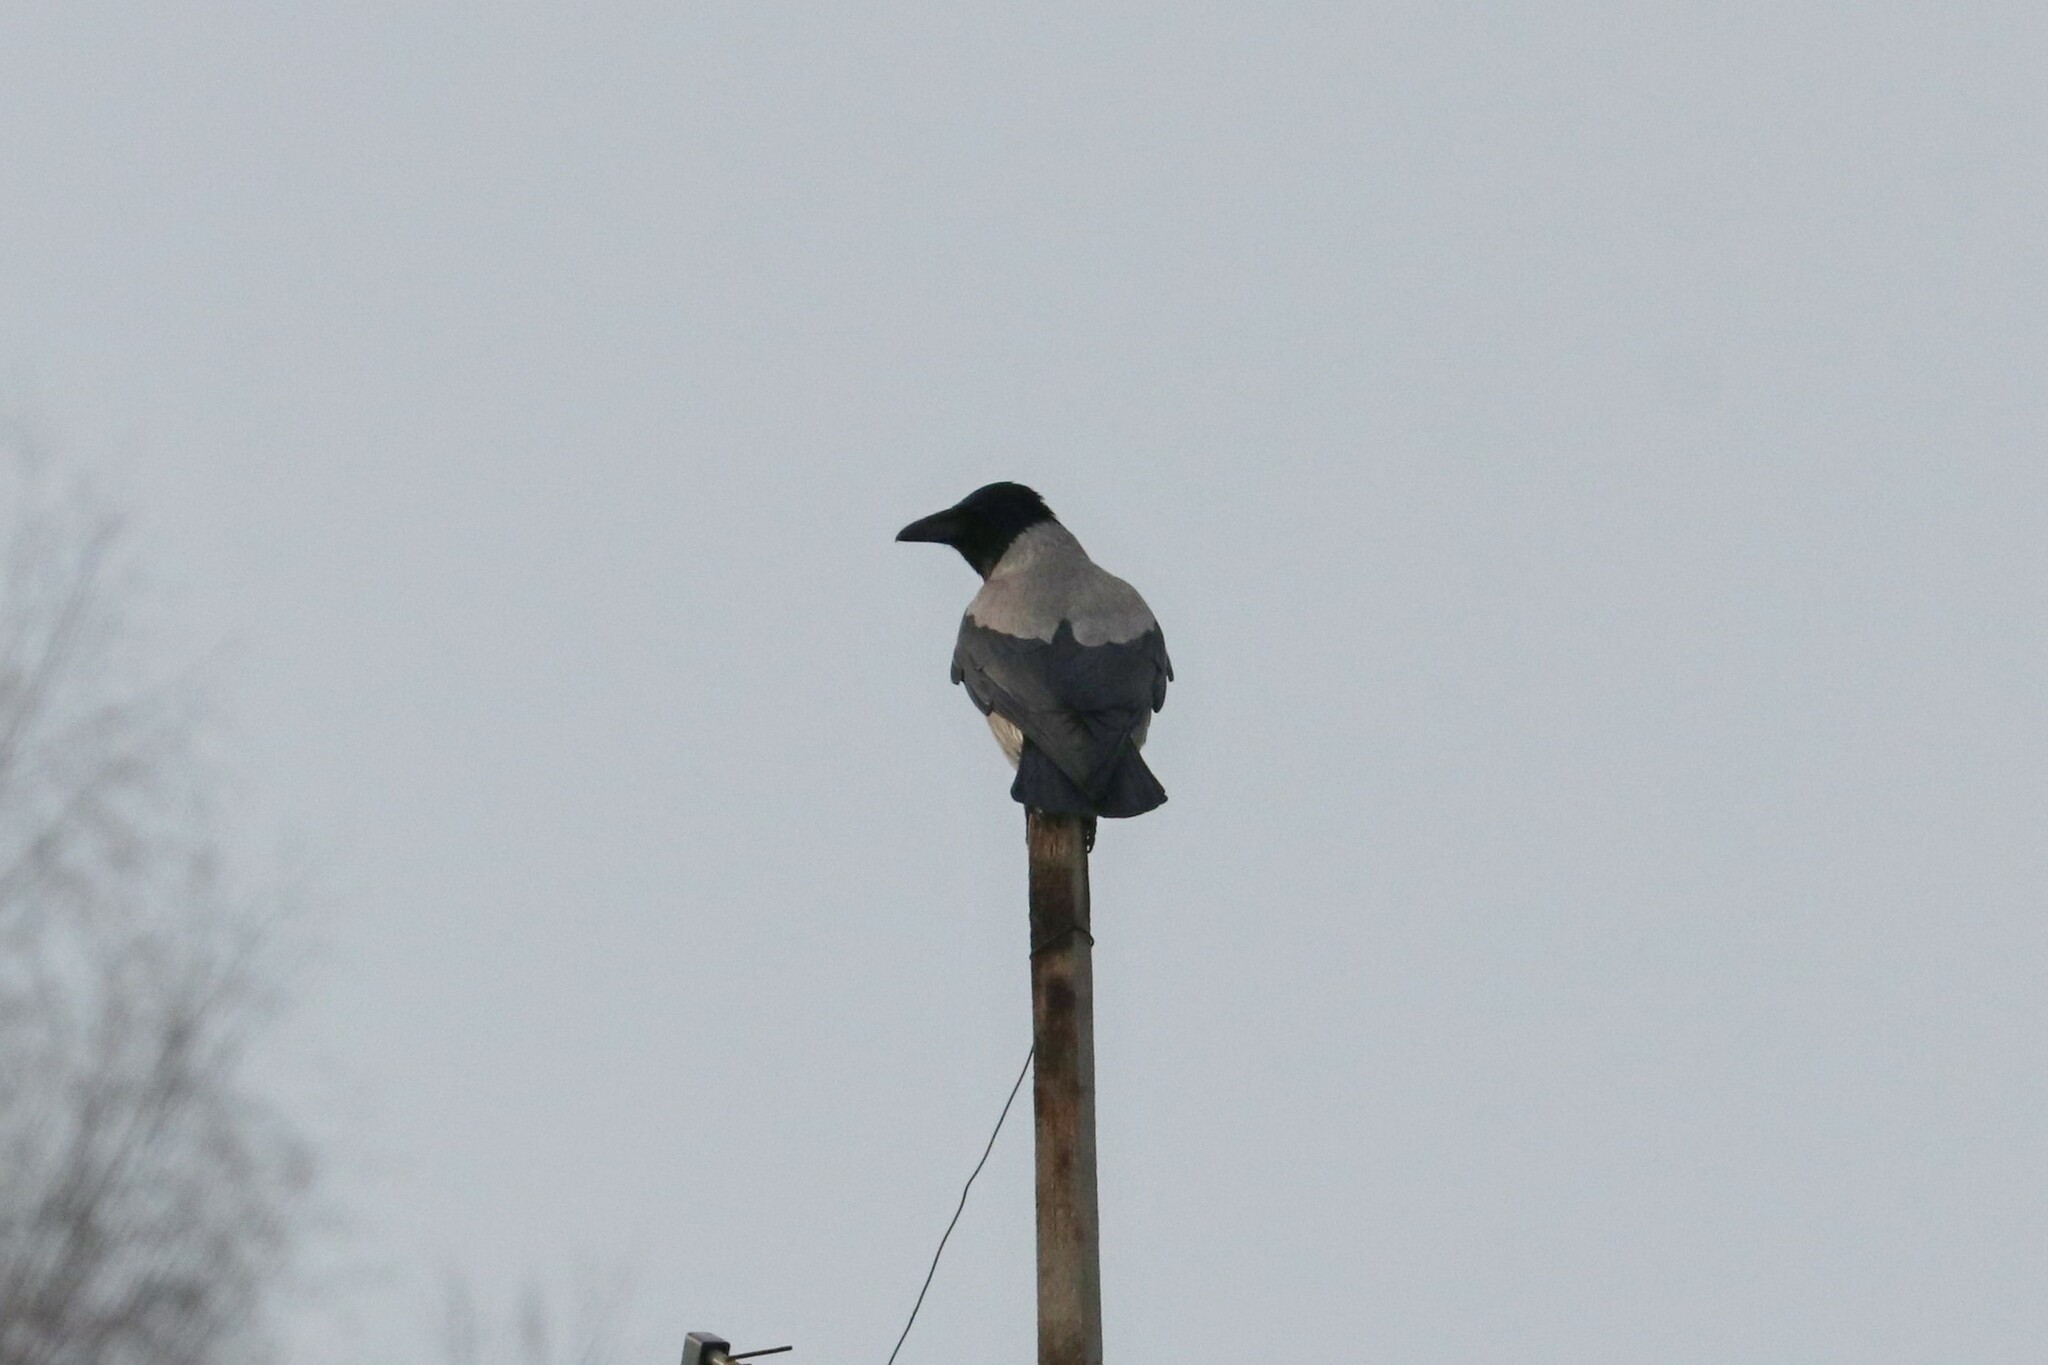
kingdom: Animalia
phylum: Chordata
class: Aves
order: Passeriformes
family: Corvidae
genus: Corvus
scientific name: Corvus cornix
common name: Hooded crow
